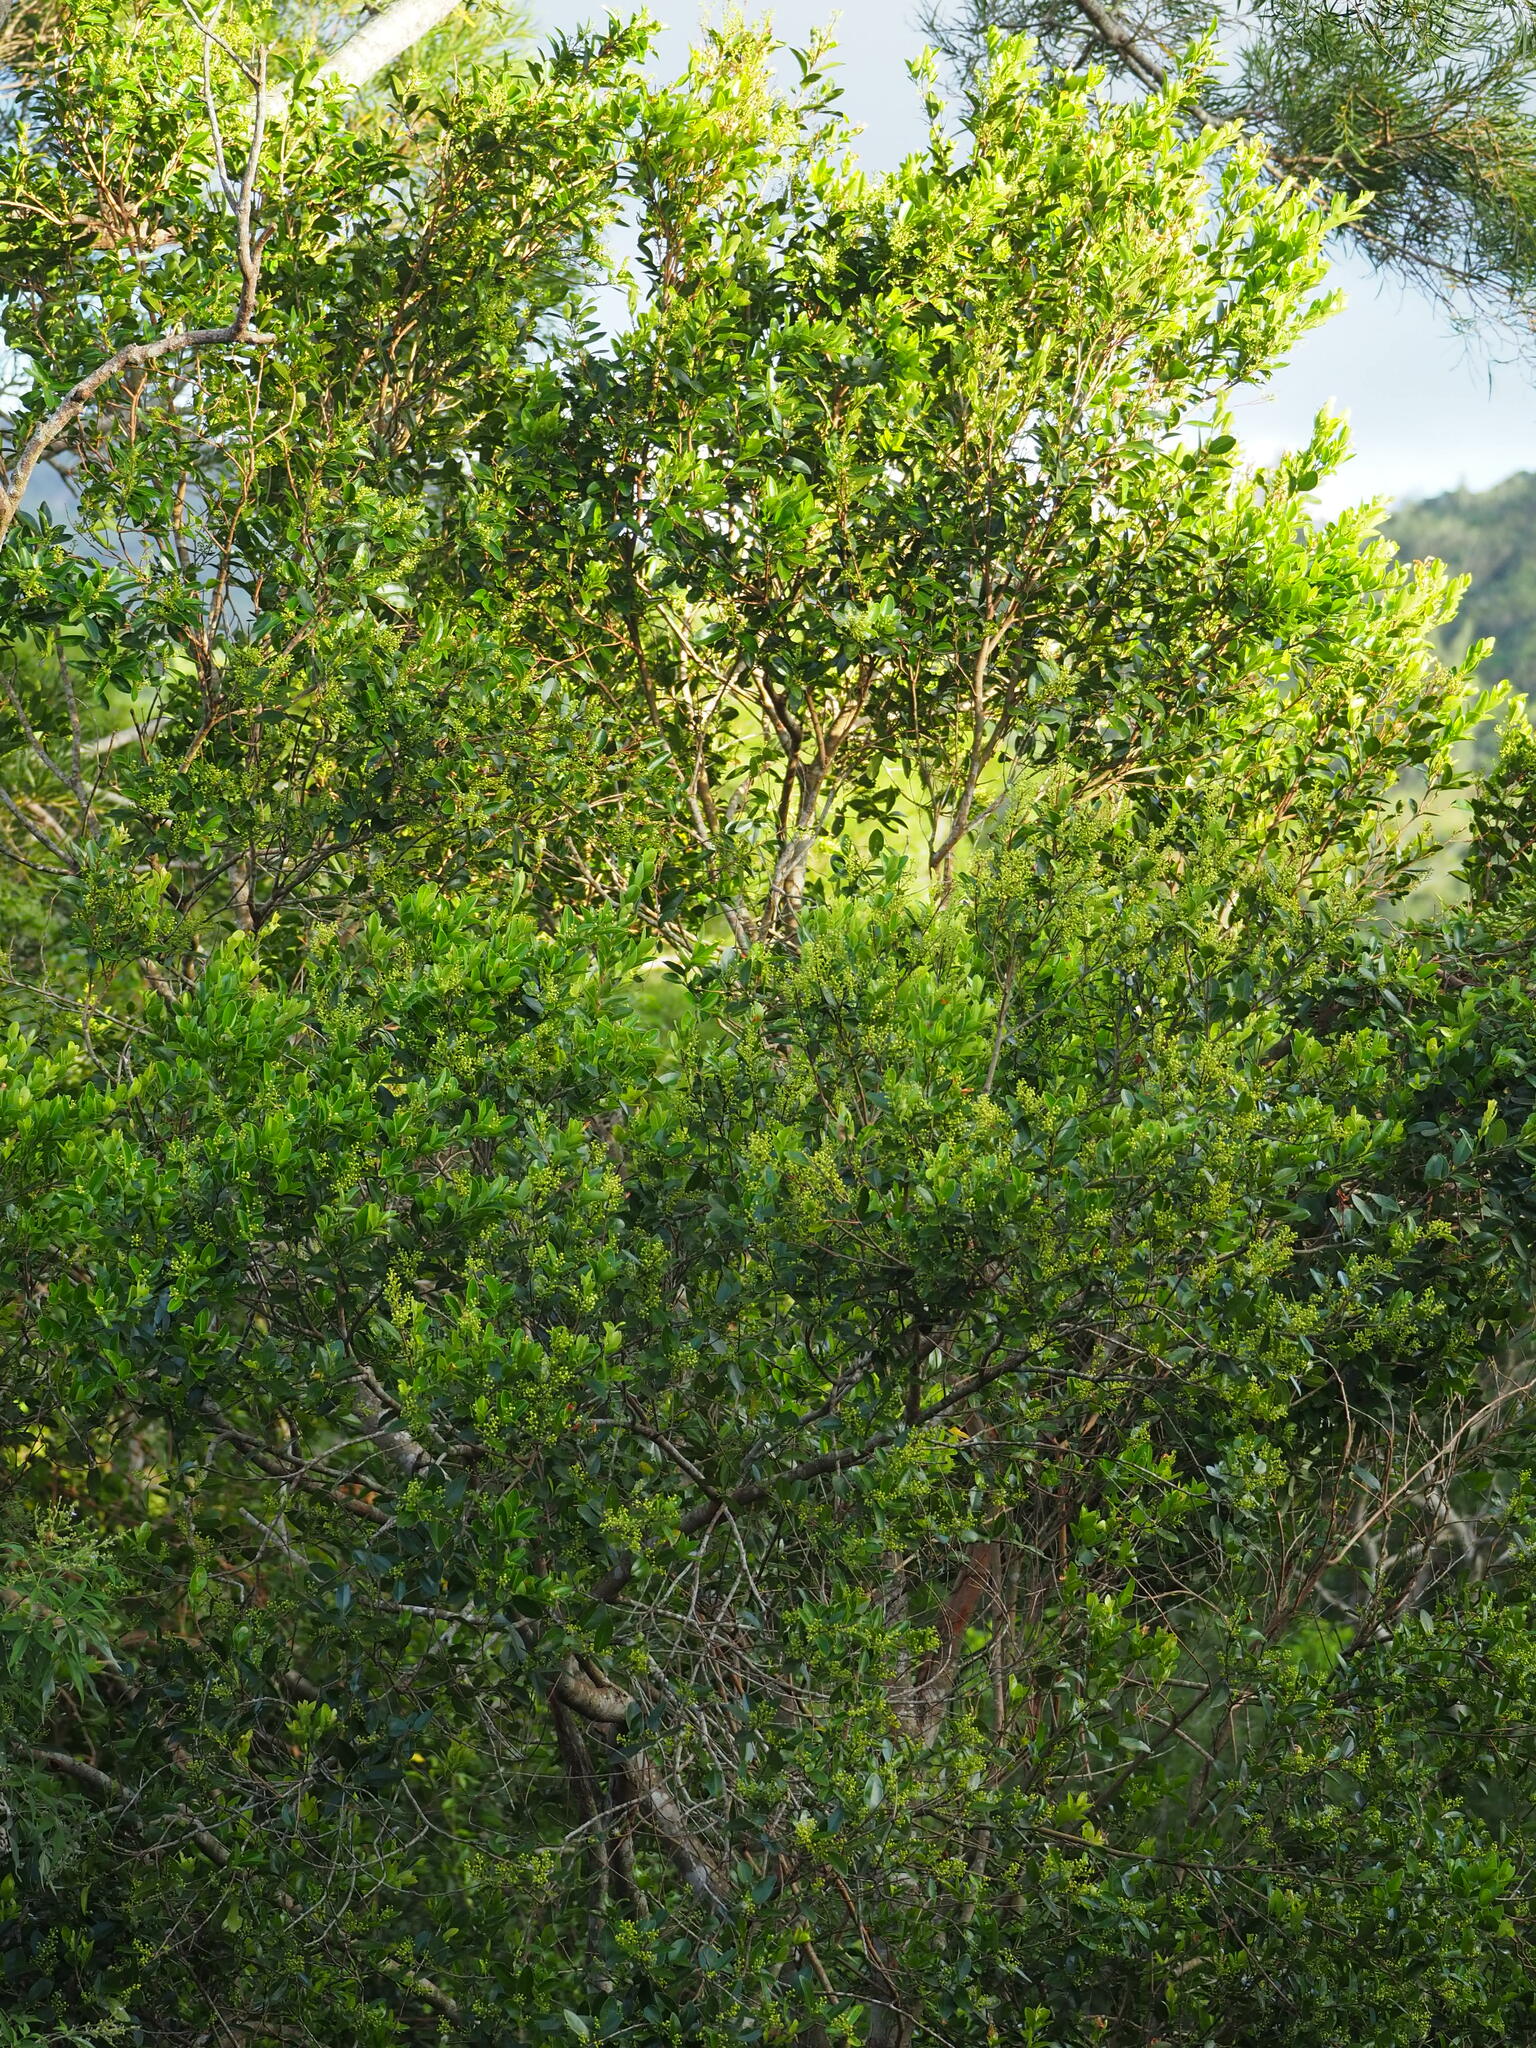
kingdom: Plantae
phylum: Tracheophyta
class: Magnoliopsida
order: Malpighiales
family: Salicaceae
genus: Scolopia
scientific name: Scolopia oldhamii
